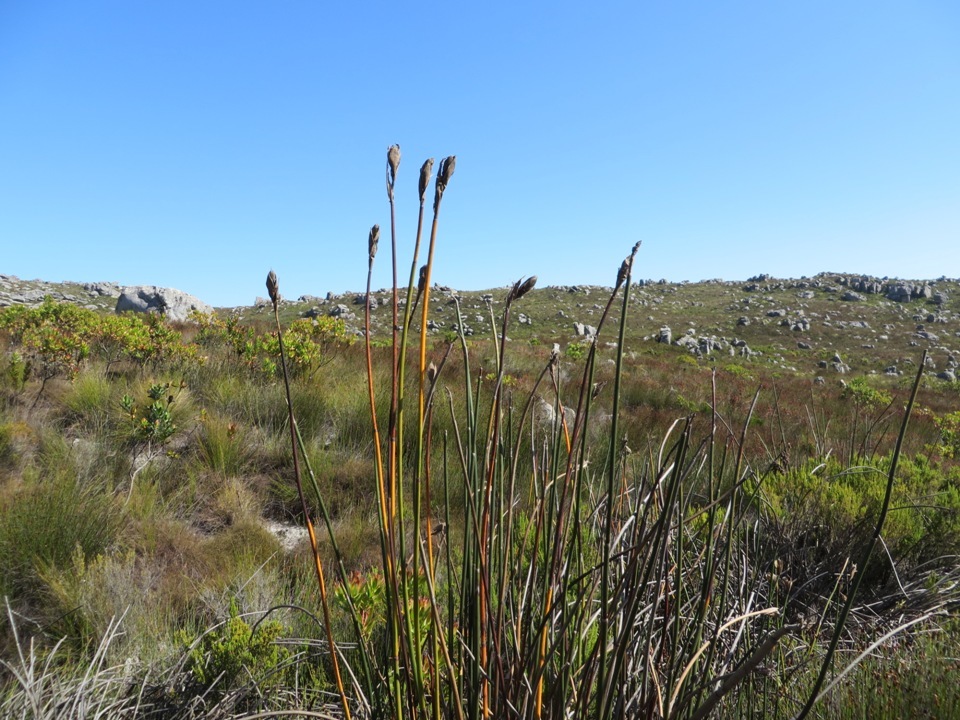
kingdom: Plantae
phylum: Tracheophyta
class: Liliopsida
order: Poales
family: Restionaceae
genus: Elegia
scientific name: Elegia mucronata
